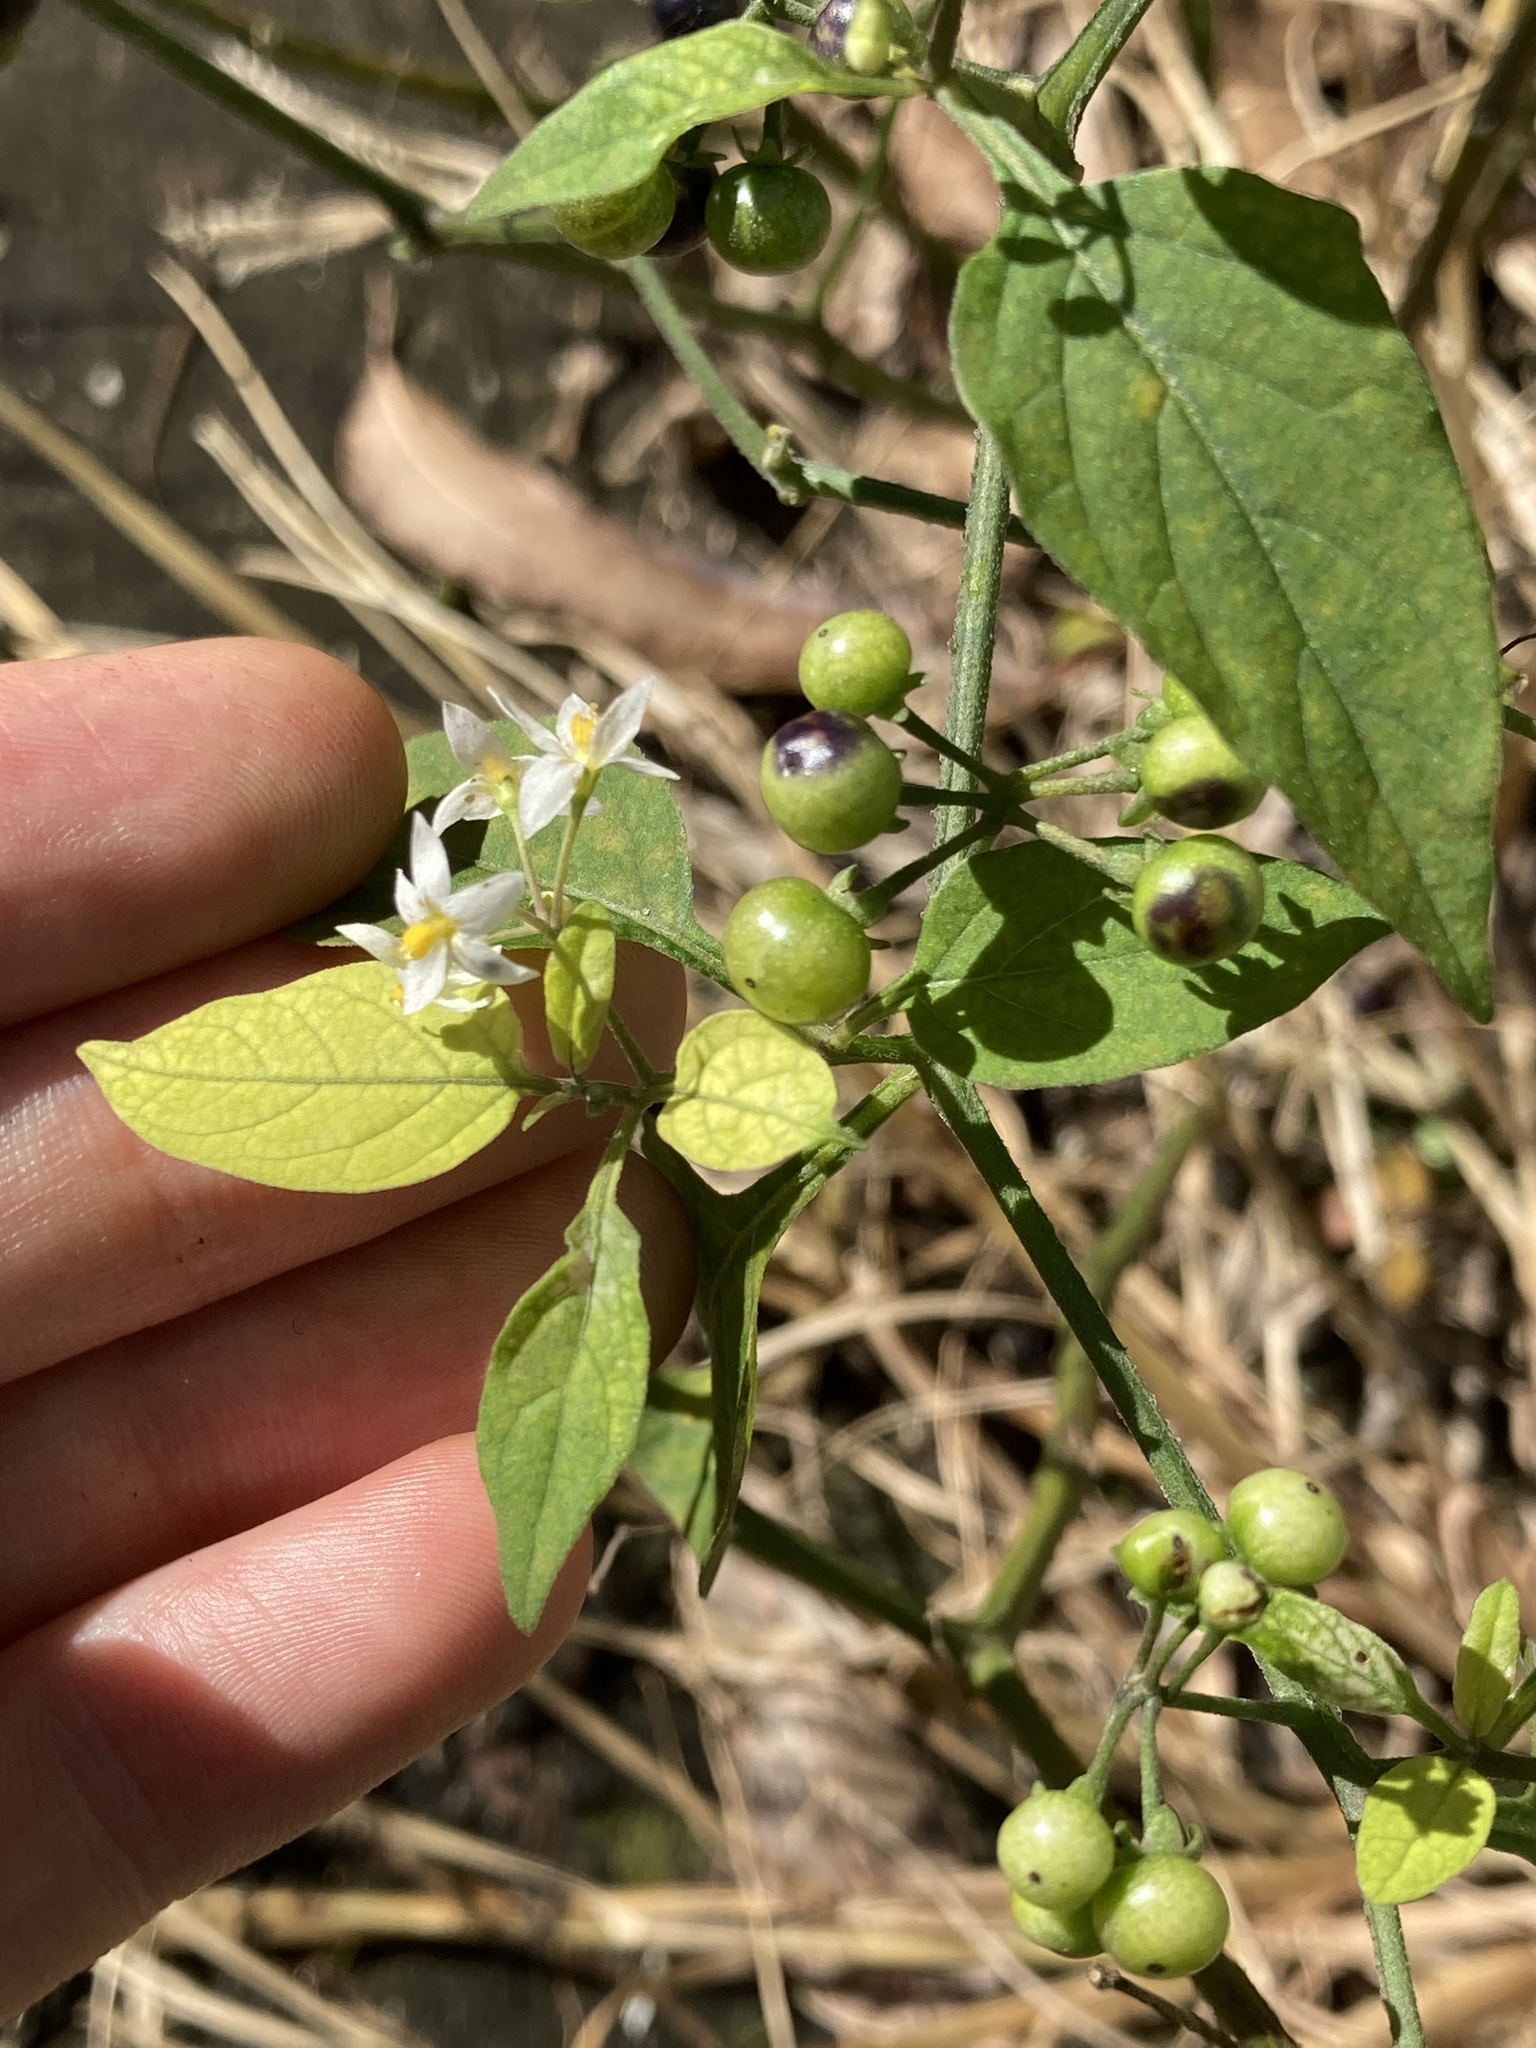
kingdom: Plantae
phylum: Tracheophyta
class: Magnoliopsida
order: Solanales
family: Solanaceae
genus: Solanum
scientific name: Solanum americanum
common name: American black nightshade
